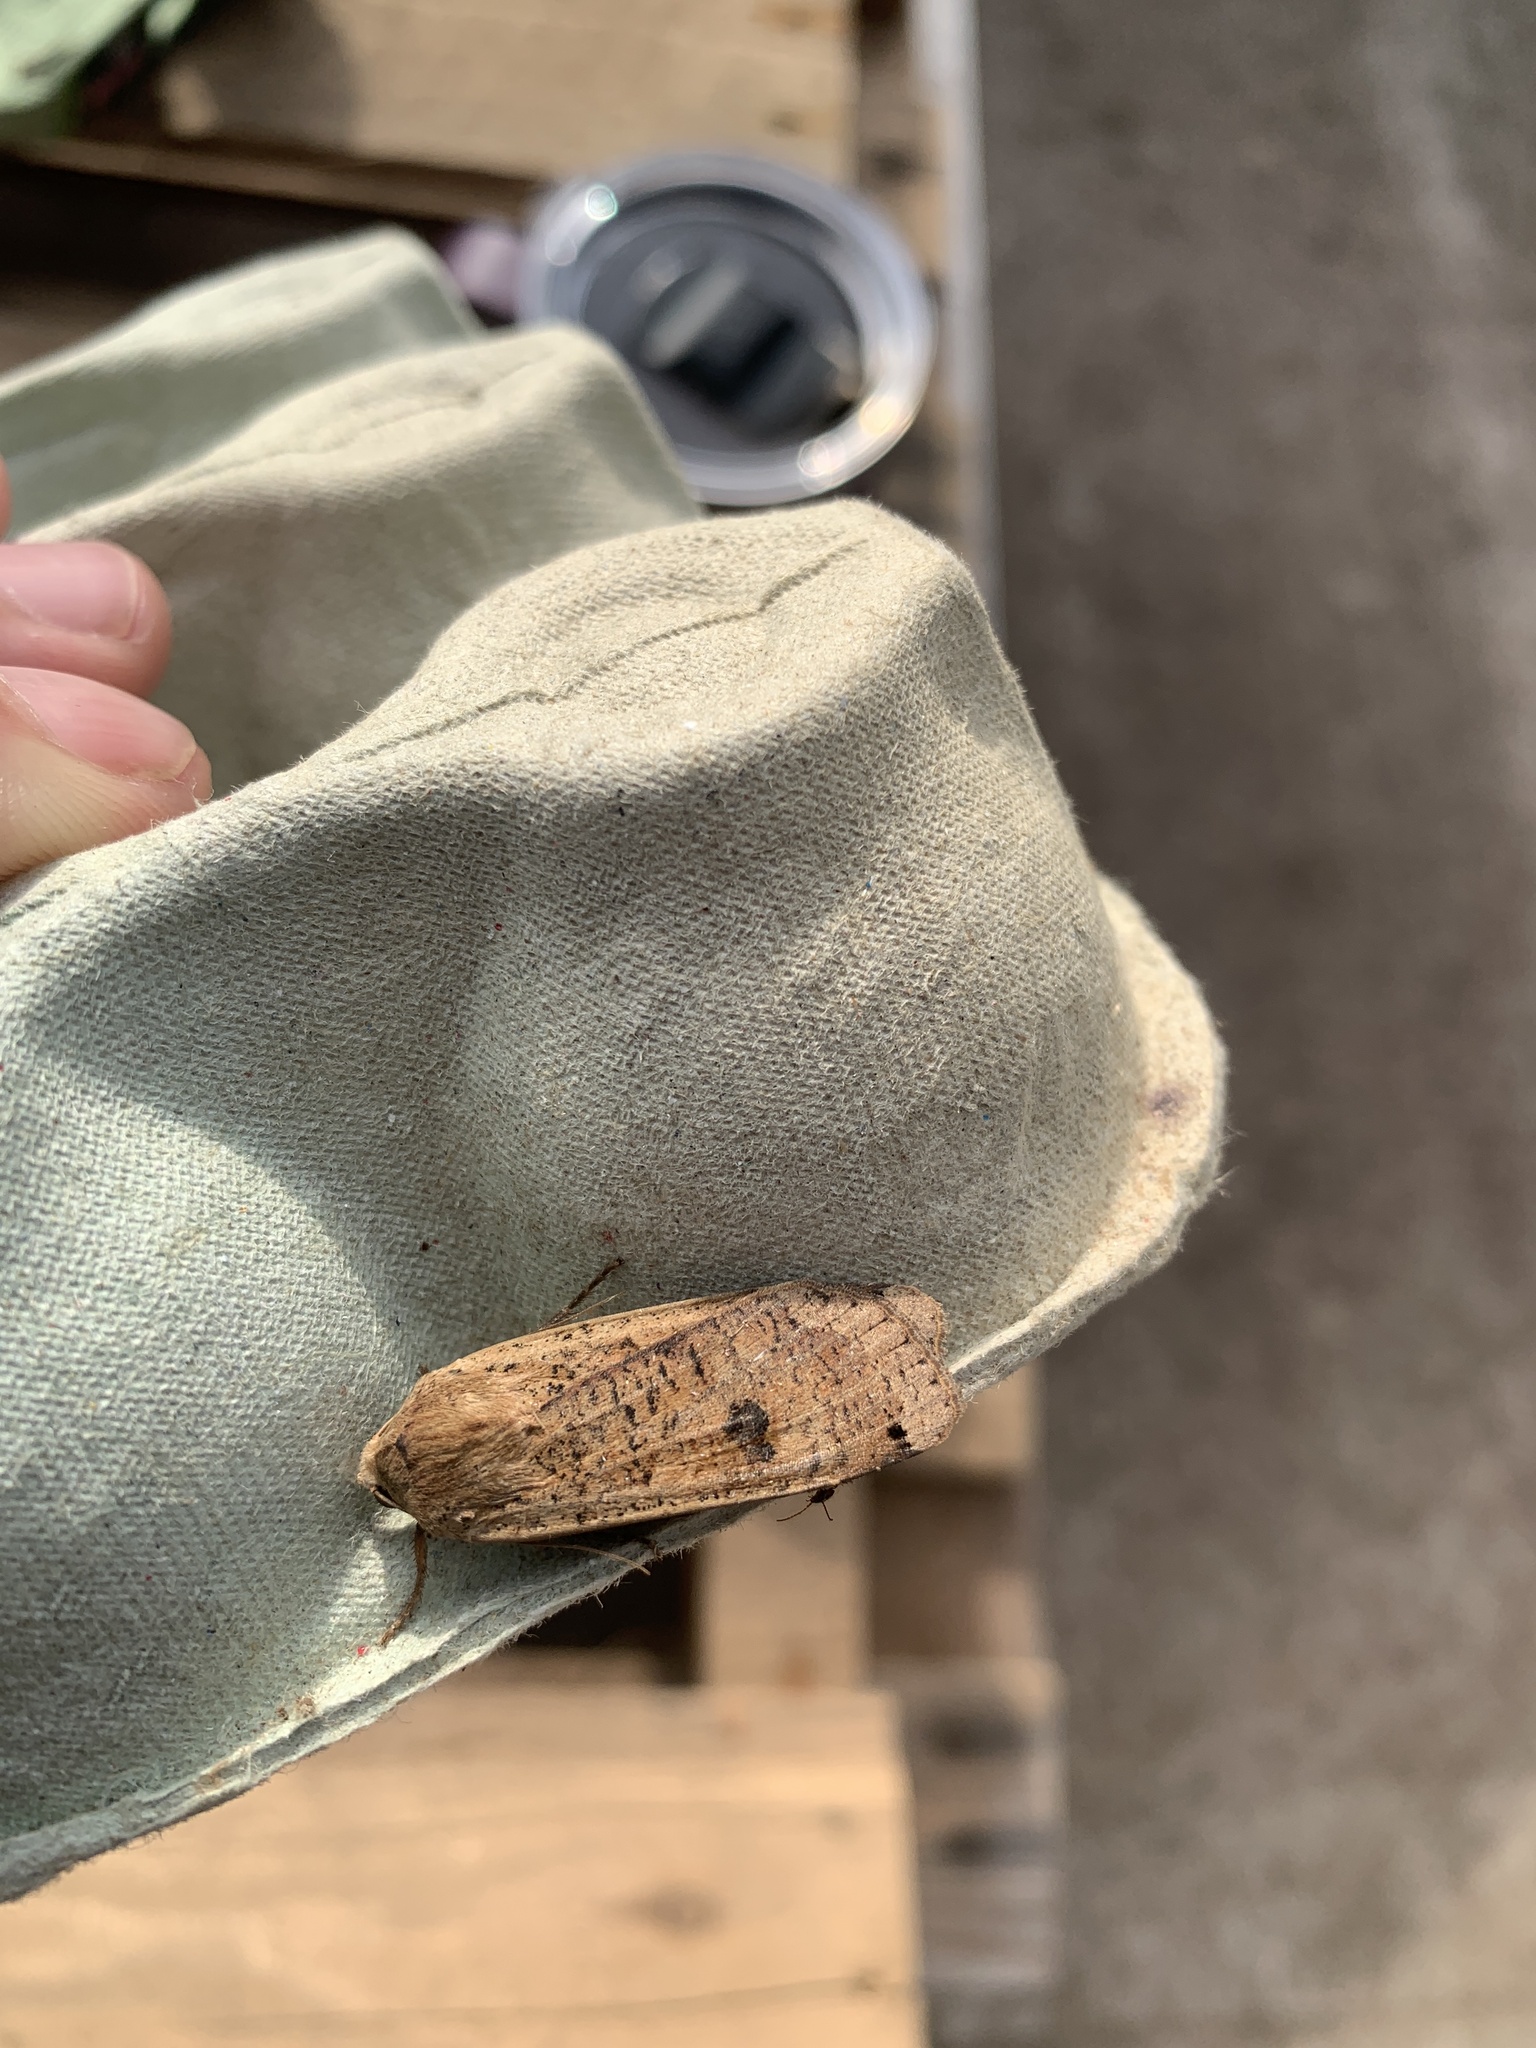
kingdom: Animalia
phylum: Arthropoda
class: Insecta
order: Lepidoptera
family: Noctuidae
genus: Noctua
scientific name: Noctua pronuba
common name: Large yellow underwing
